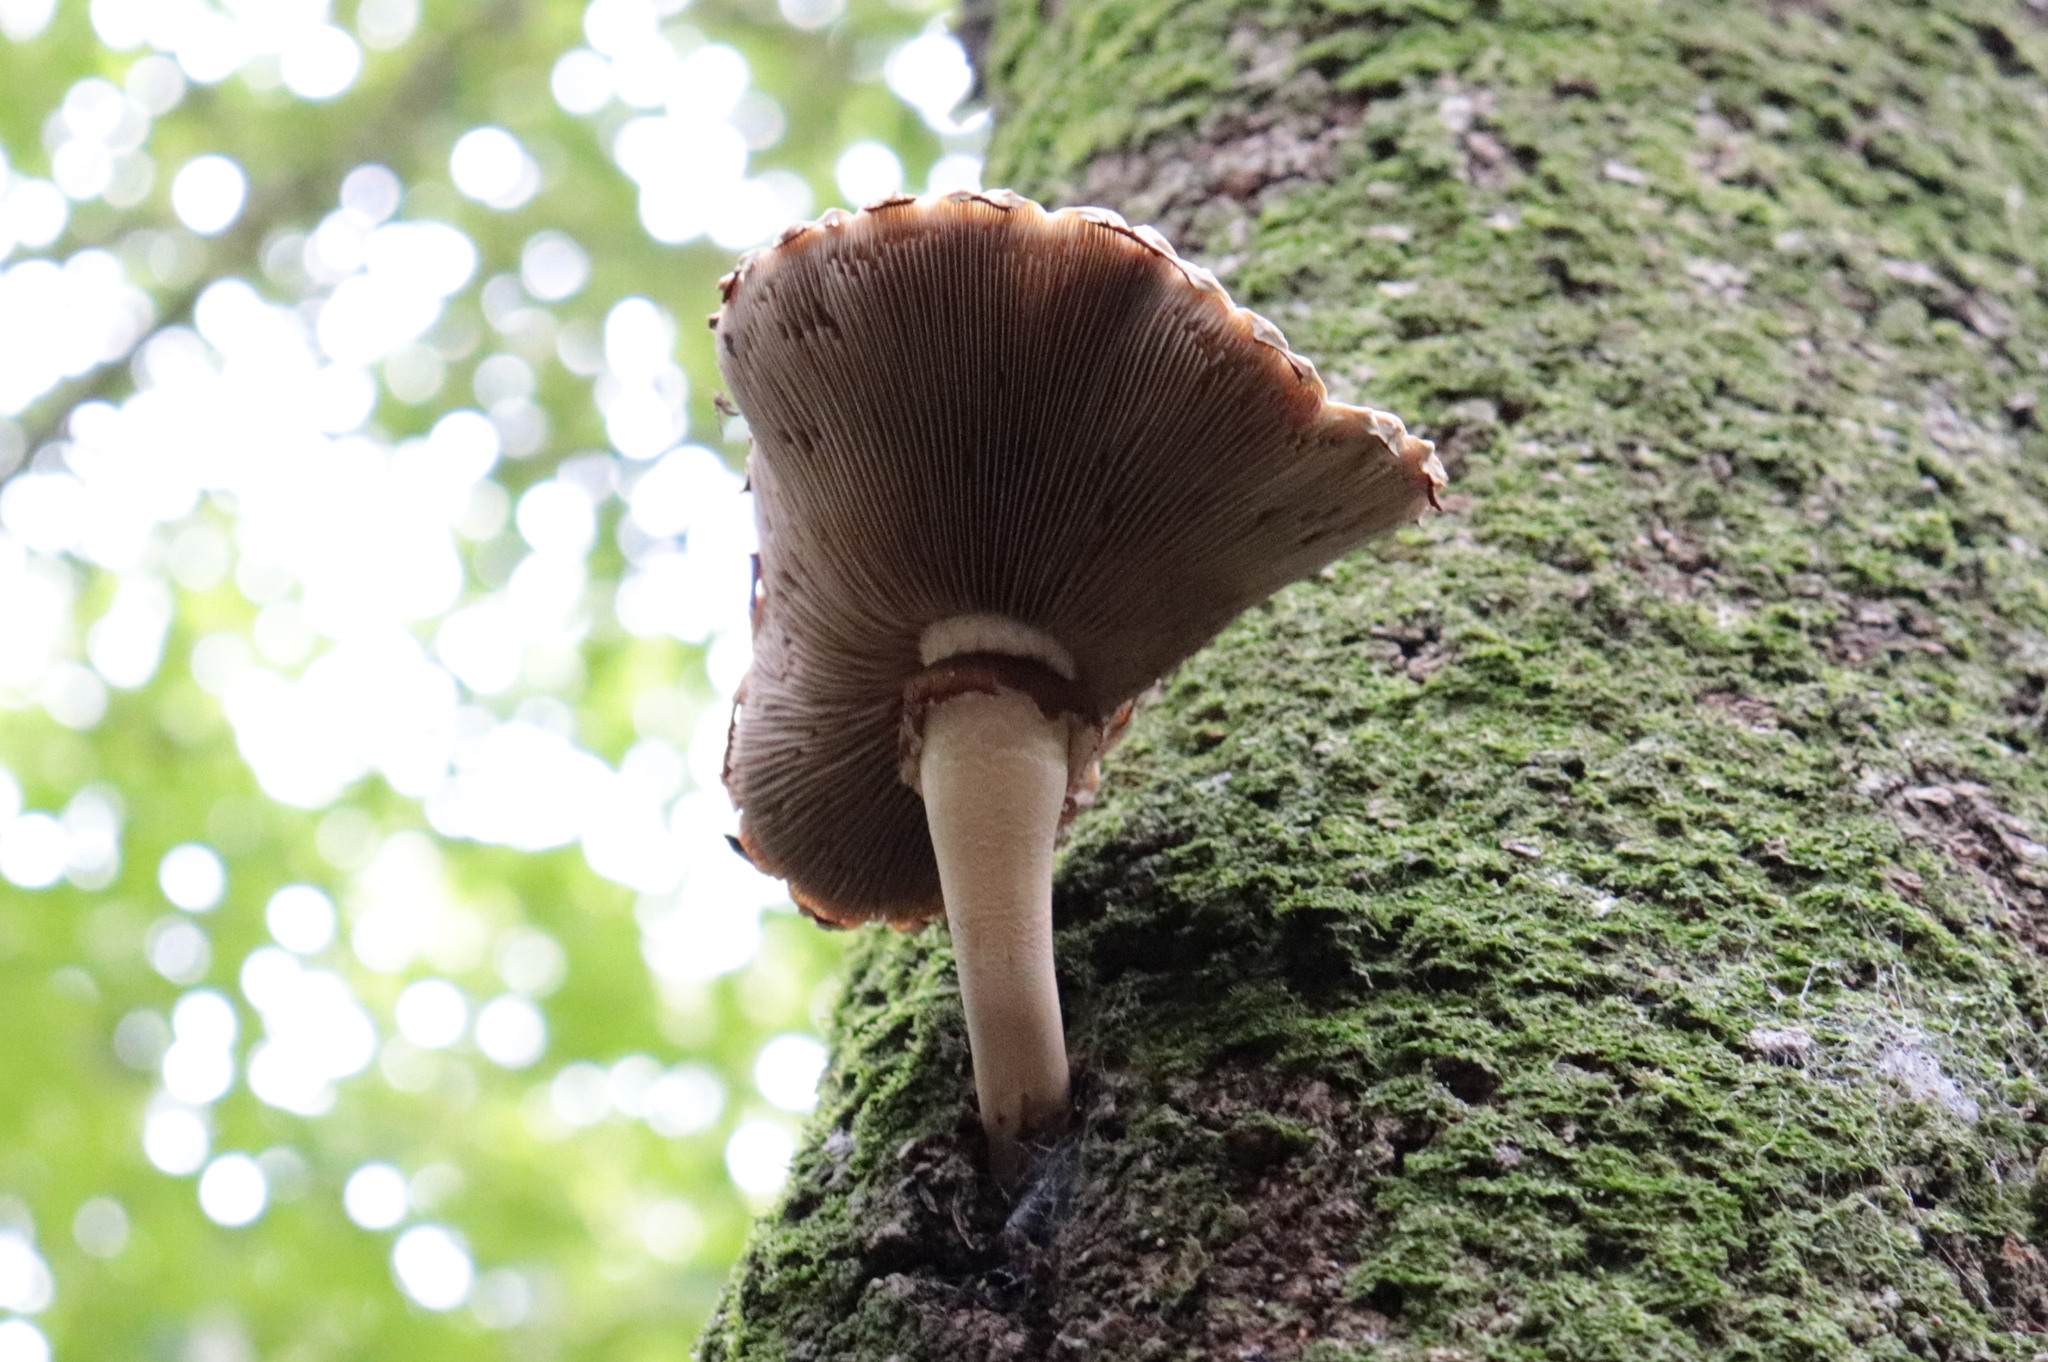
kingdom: Fungi
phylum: Basidiomycota
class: Agaricomycetes
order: Agaricales
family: Tubariaceae
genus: Cyclocybe
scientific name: Cyclocybe parasitica
